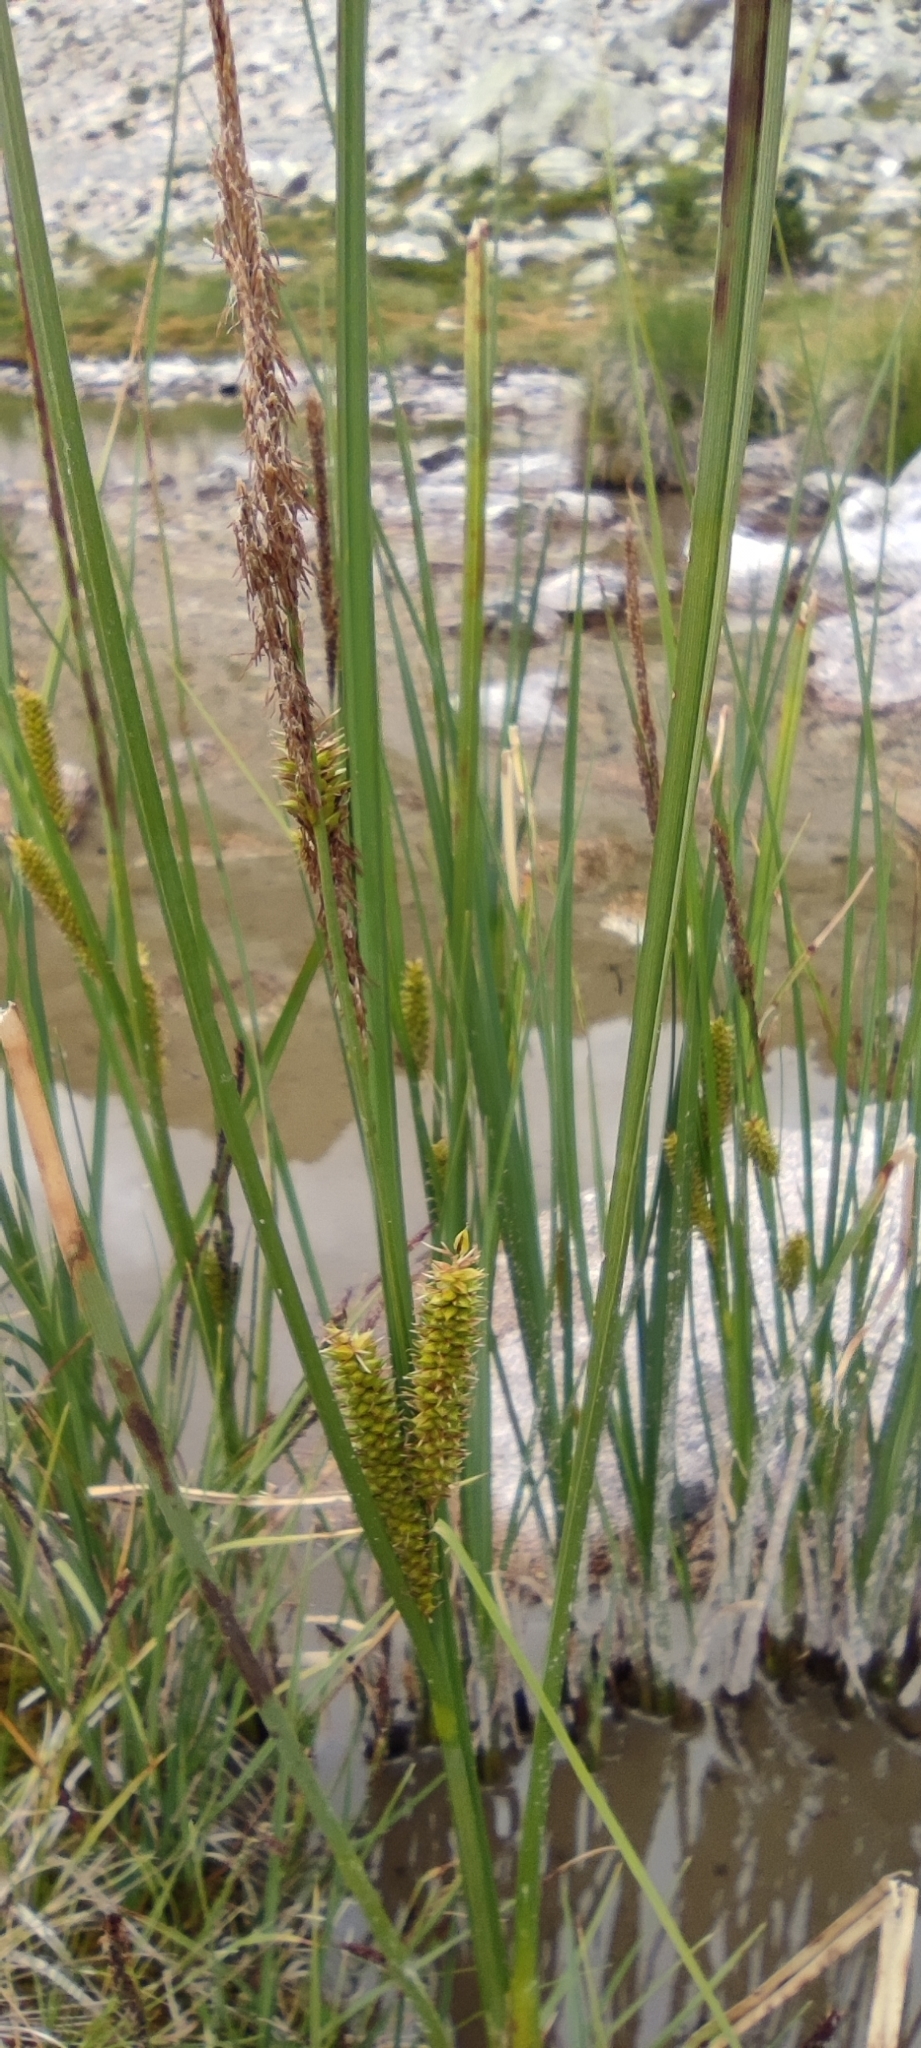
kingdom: Plantae
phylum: Tracheophyta
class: Liliopsida
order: Poales
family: Cyperaceae
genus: Carex
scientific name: Carex rostrata
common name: Bottle sedge
